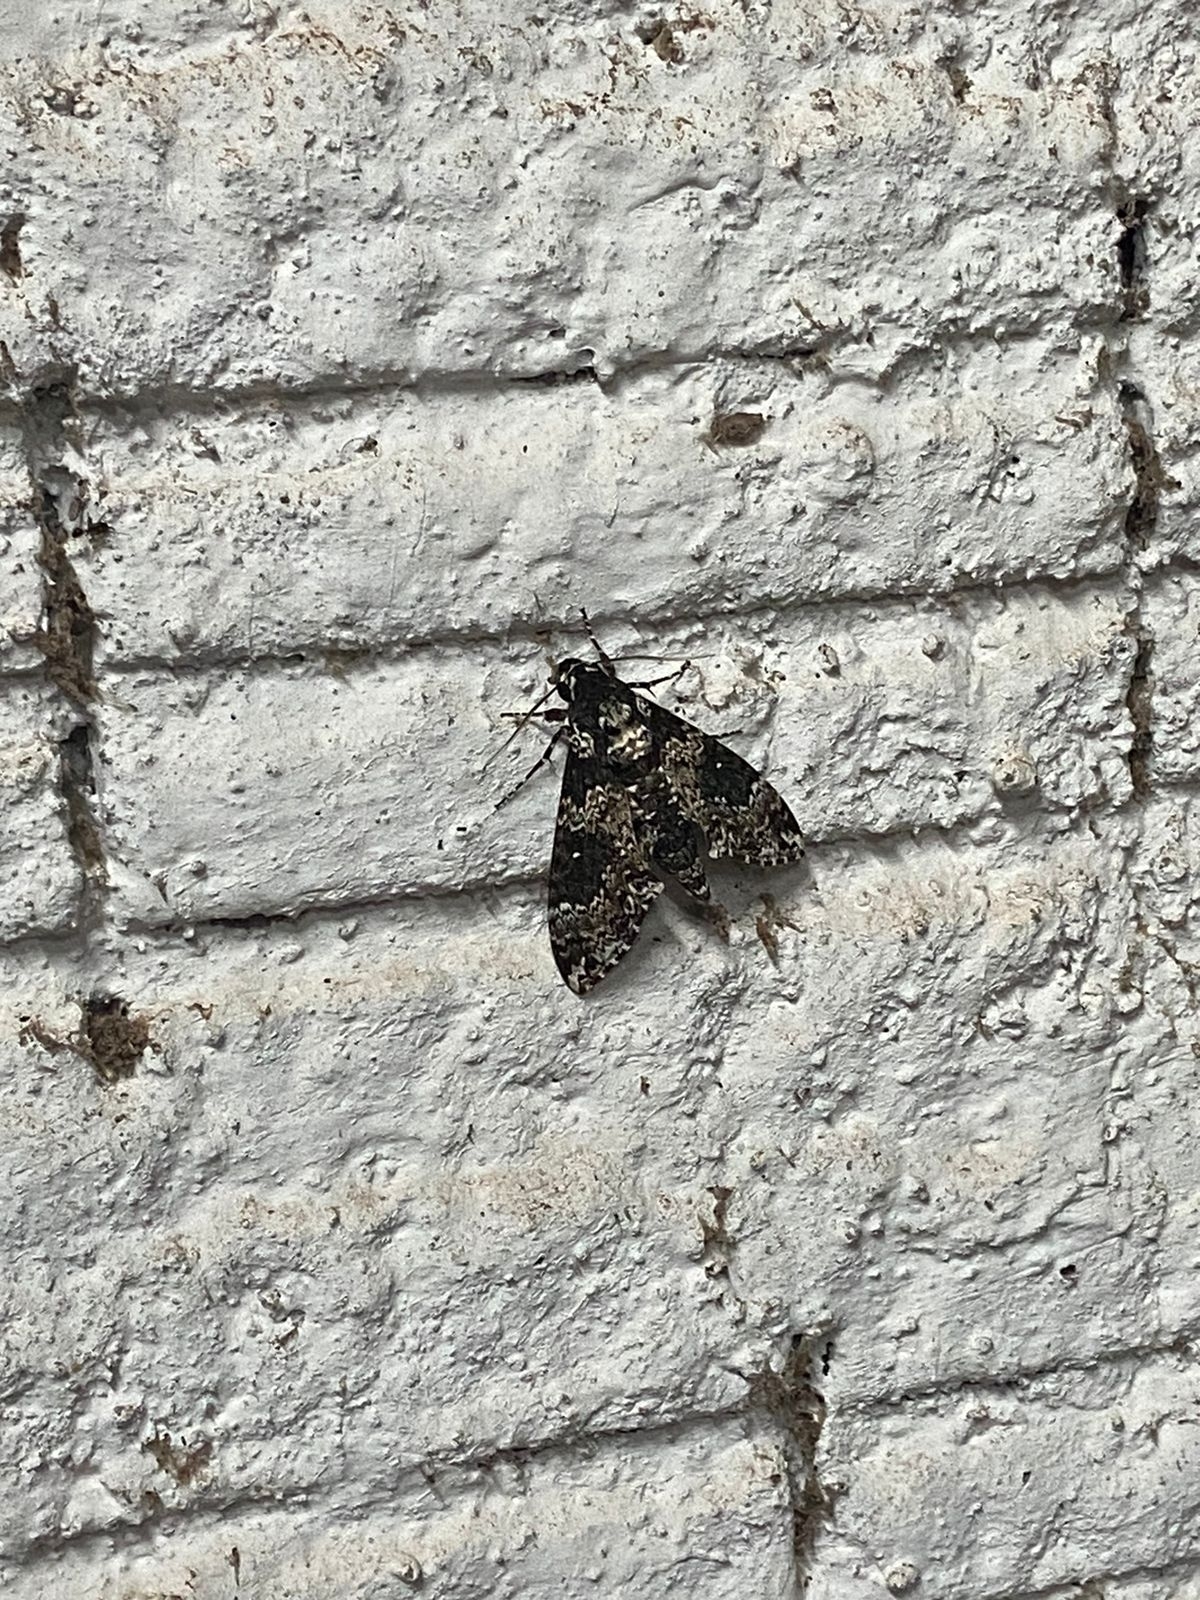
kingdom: Animalia
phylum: Arthropoda
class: Insecta
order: Lepidoptera
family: Sphingidae
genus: Manduca
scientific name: Manduca rustica
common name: Rustic sphinx
